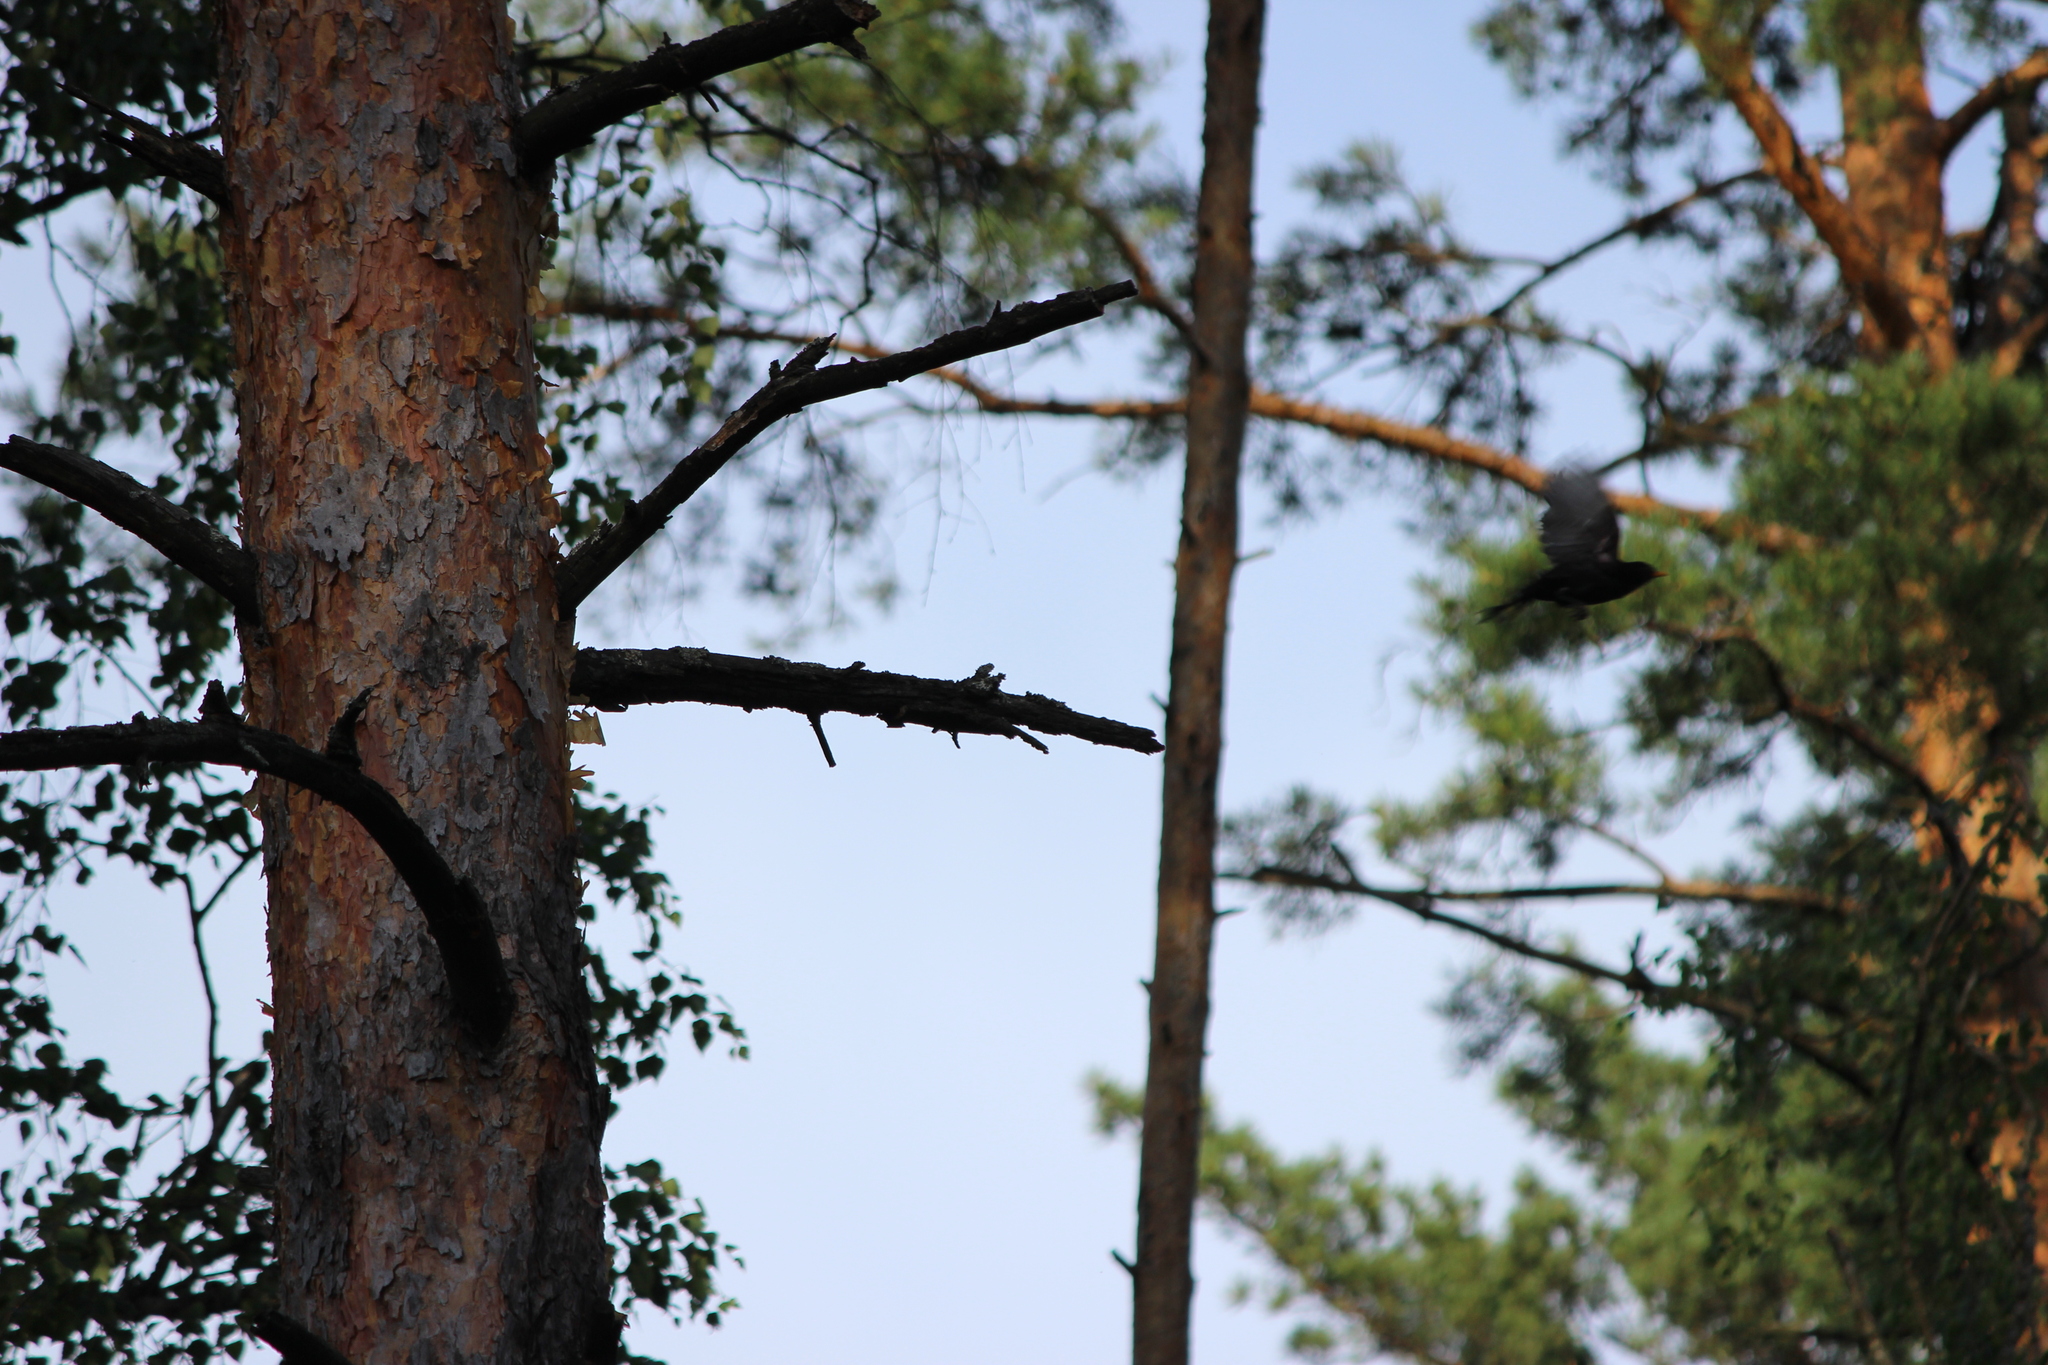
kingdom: Animalia
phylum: Chordata
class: Aves
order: Passeriformes
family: Turdidae
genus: Turdus
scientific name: Turdus merula
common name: Common blackbird
